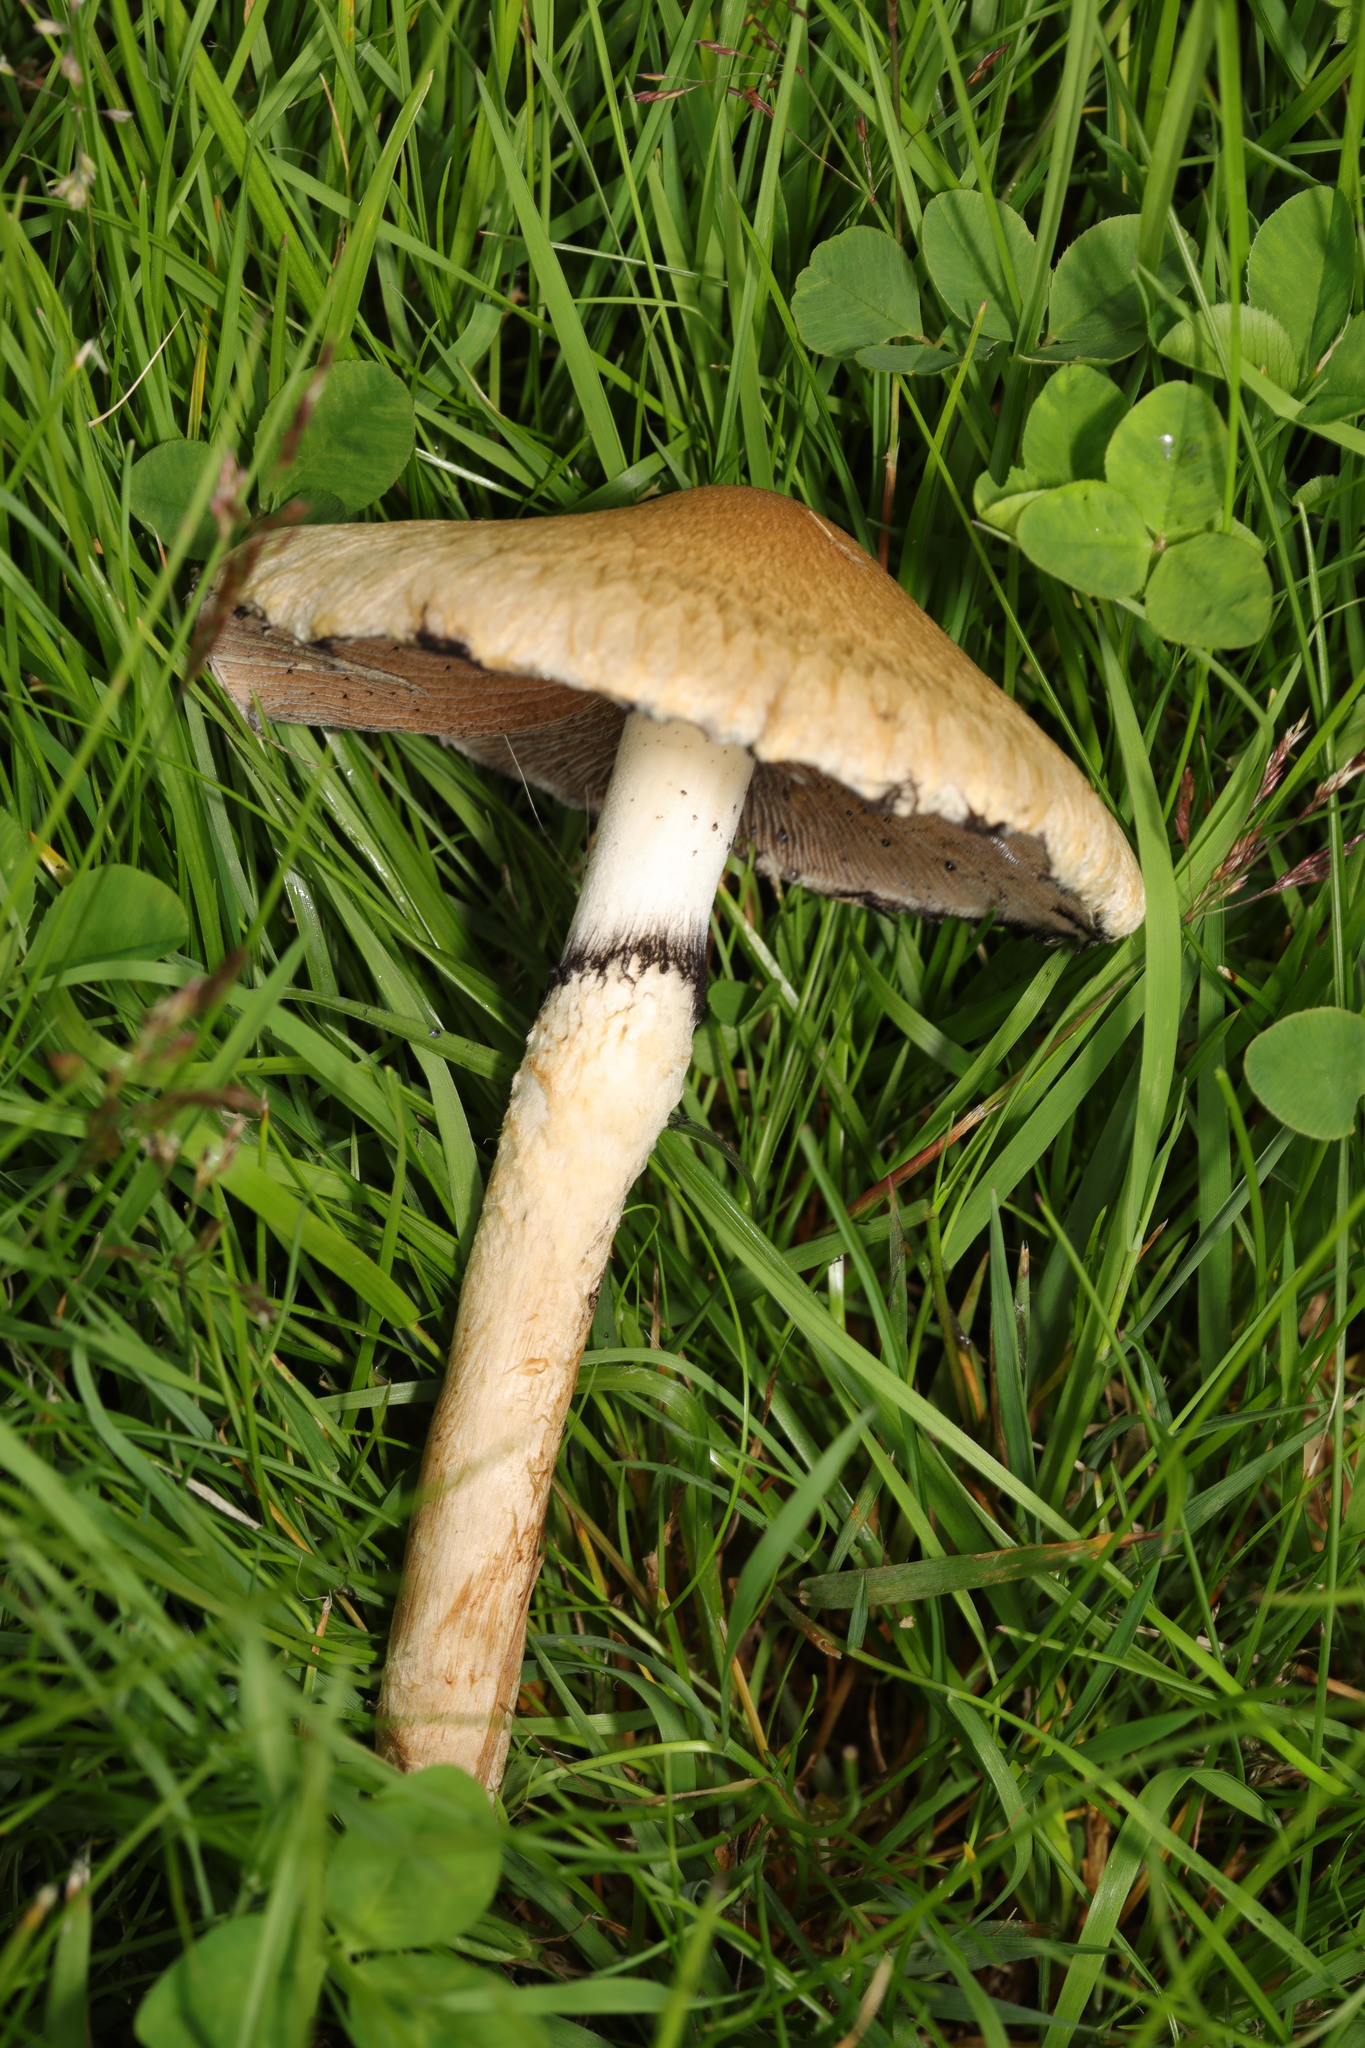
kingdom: Fungi
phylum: Basidiomycota
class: Agaricomycetes
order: Agaricales
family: Psathyrellaceae
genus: Lacrymaria
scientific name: Lacrymaria lacrymabunda
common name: Weeping widow
